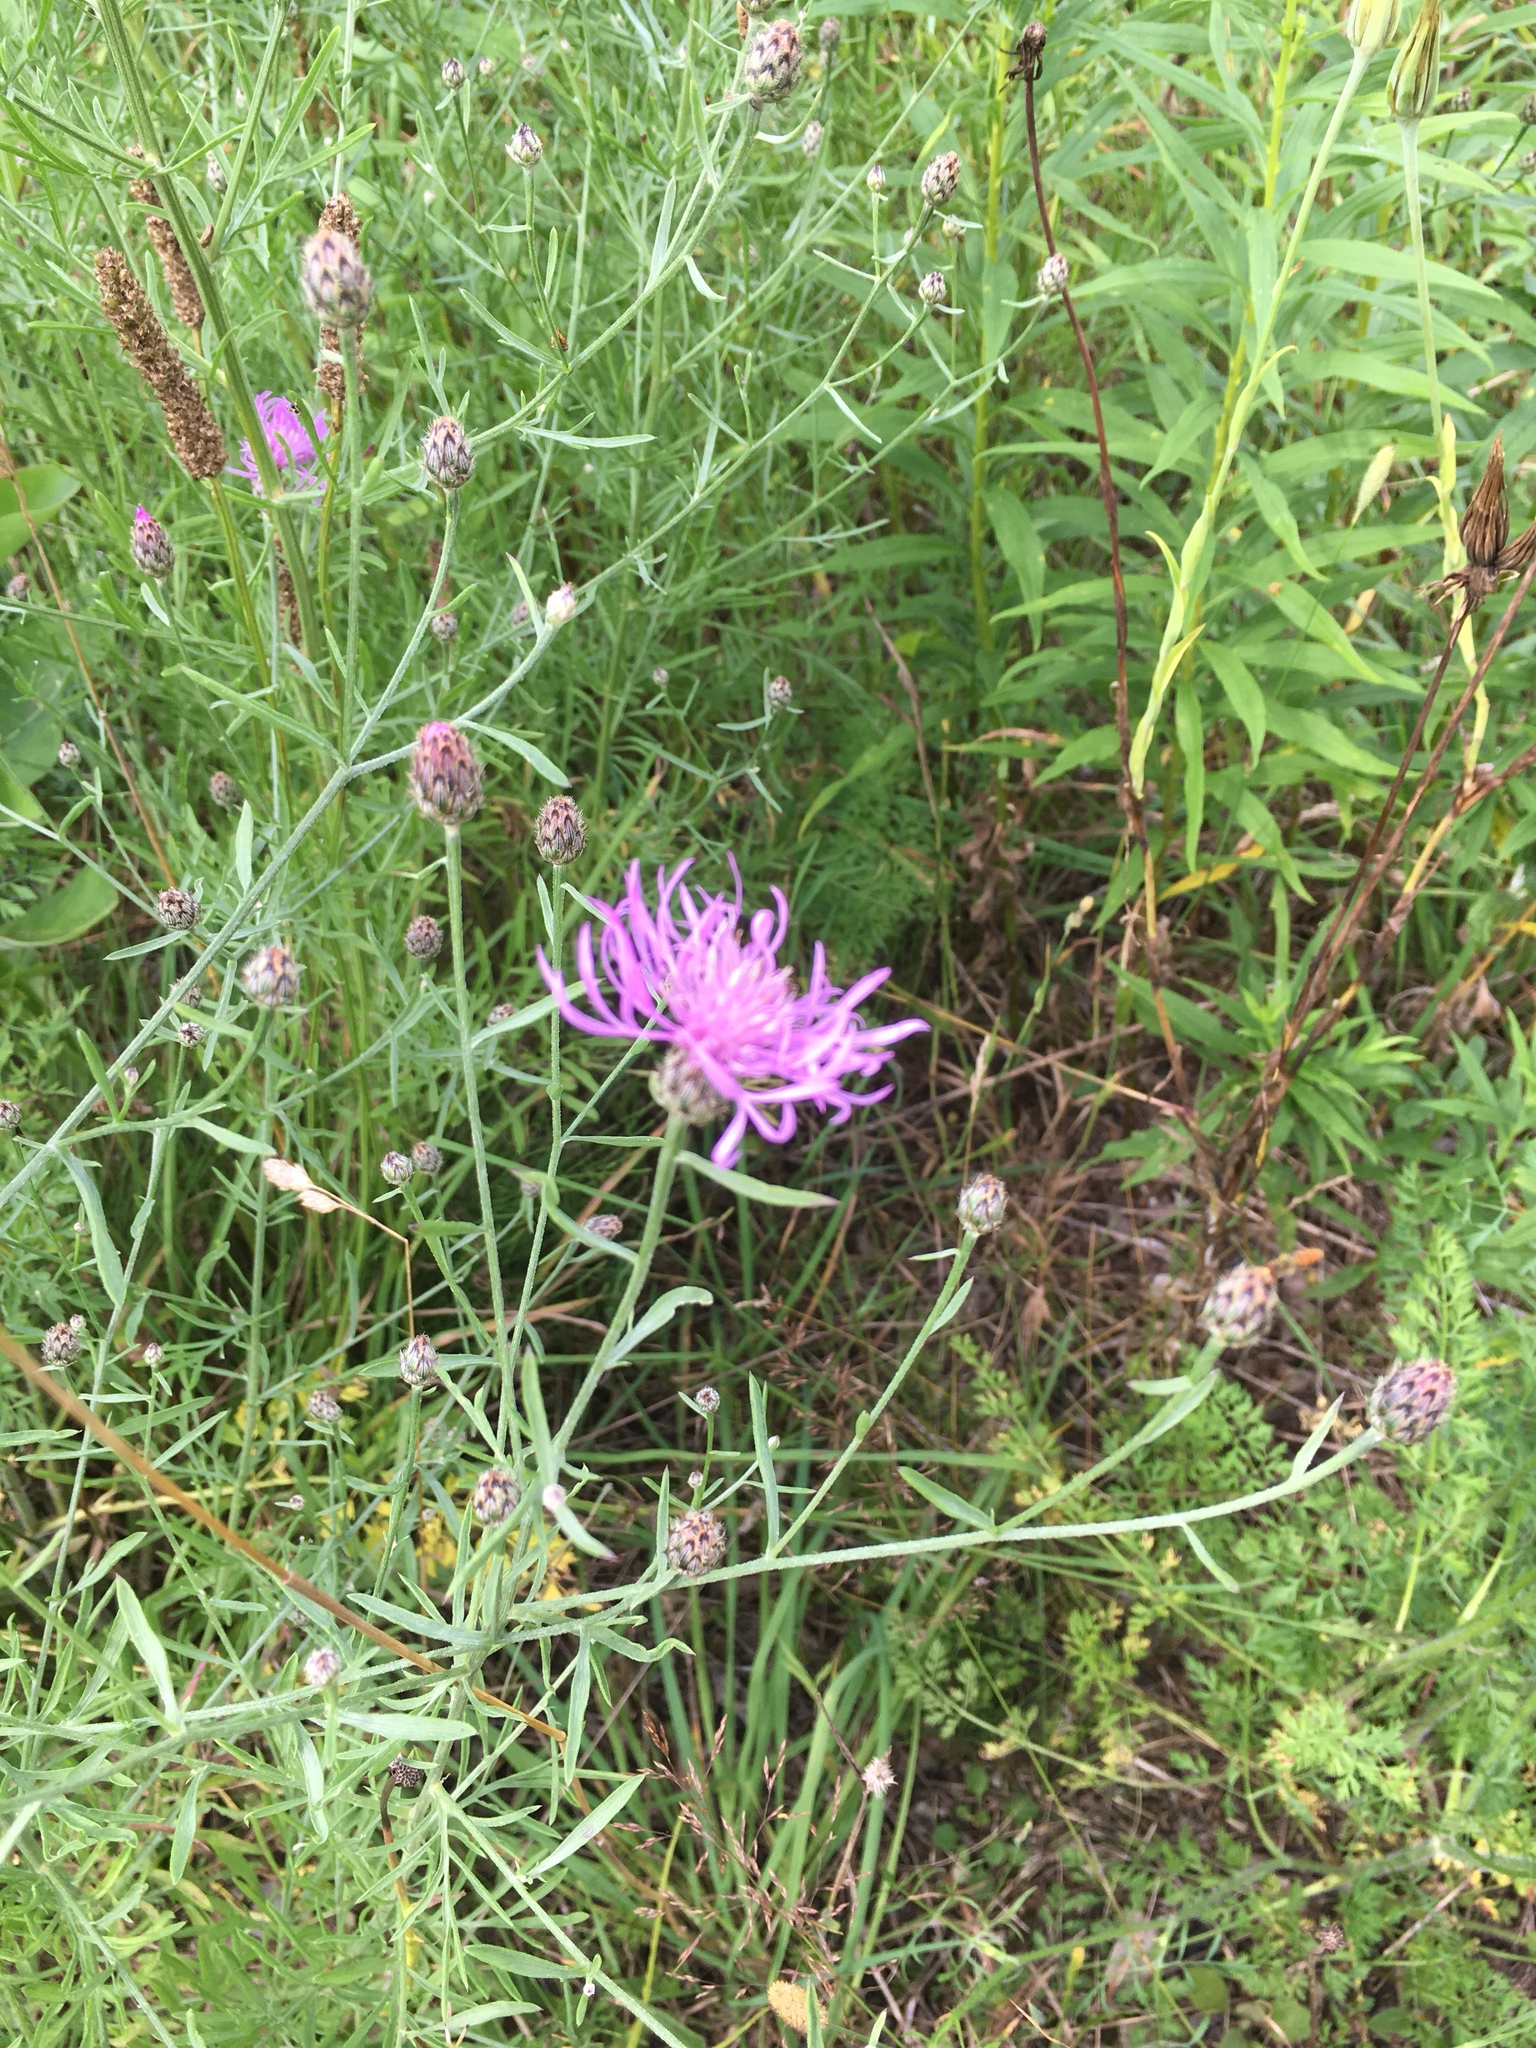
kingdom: Plantae
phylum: Tracheophyta
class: Magnoliopsida
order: Asterales
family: Asteraceae
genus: Centaurea
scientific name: Centaurea stoebe
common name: Spotted knapweed
